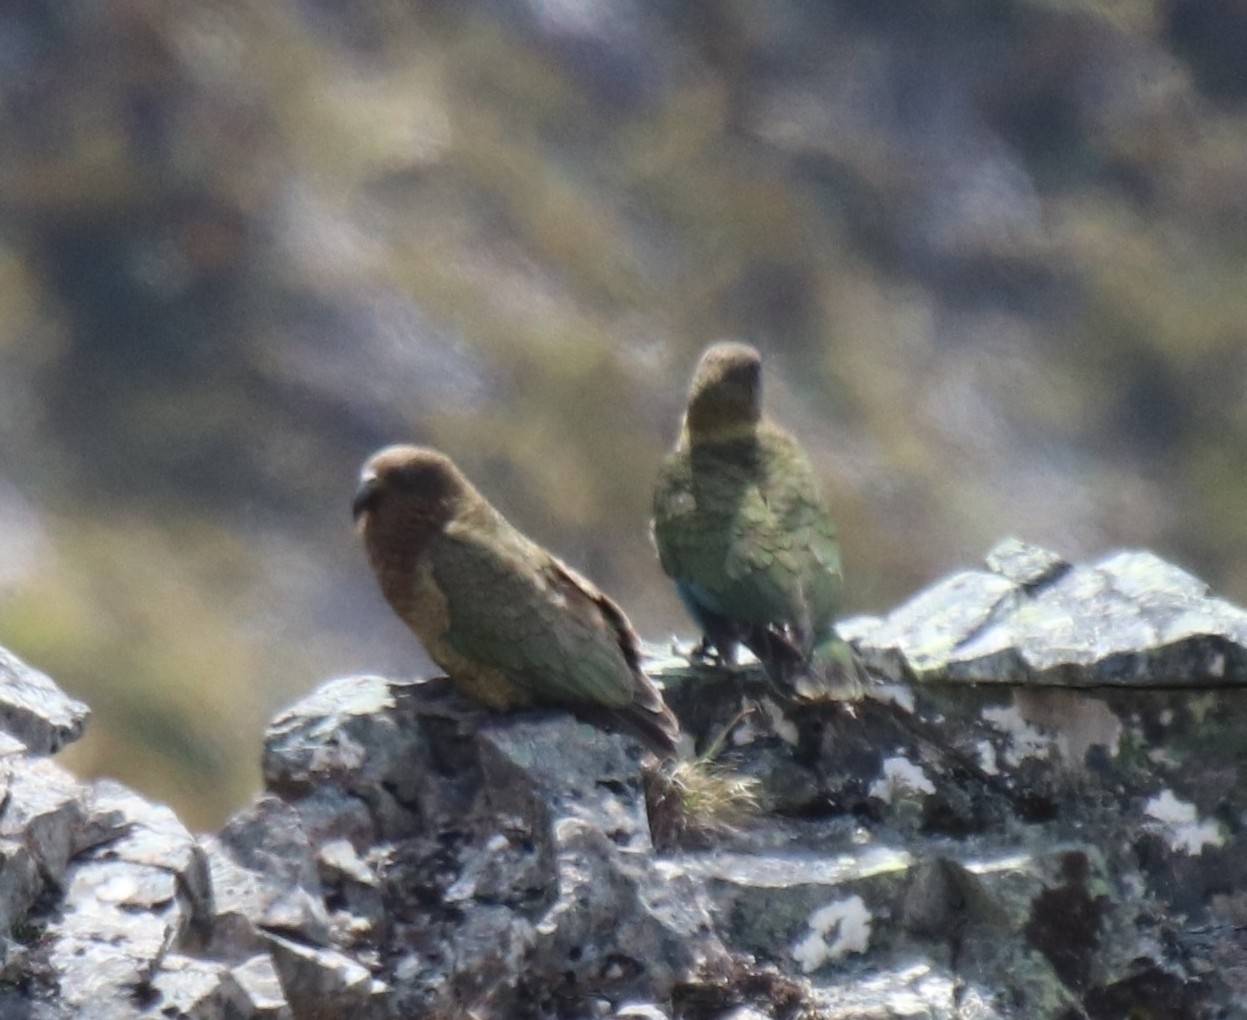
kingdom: Animalia
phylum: Chordata
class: Aves
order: Psittaciformes
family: Psittacidae
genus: Nestor
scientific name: Nestor notabilis
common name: Kea
